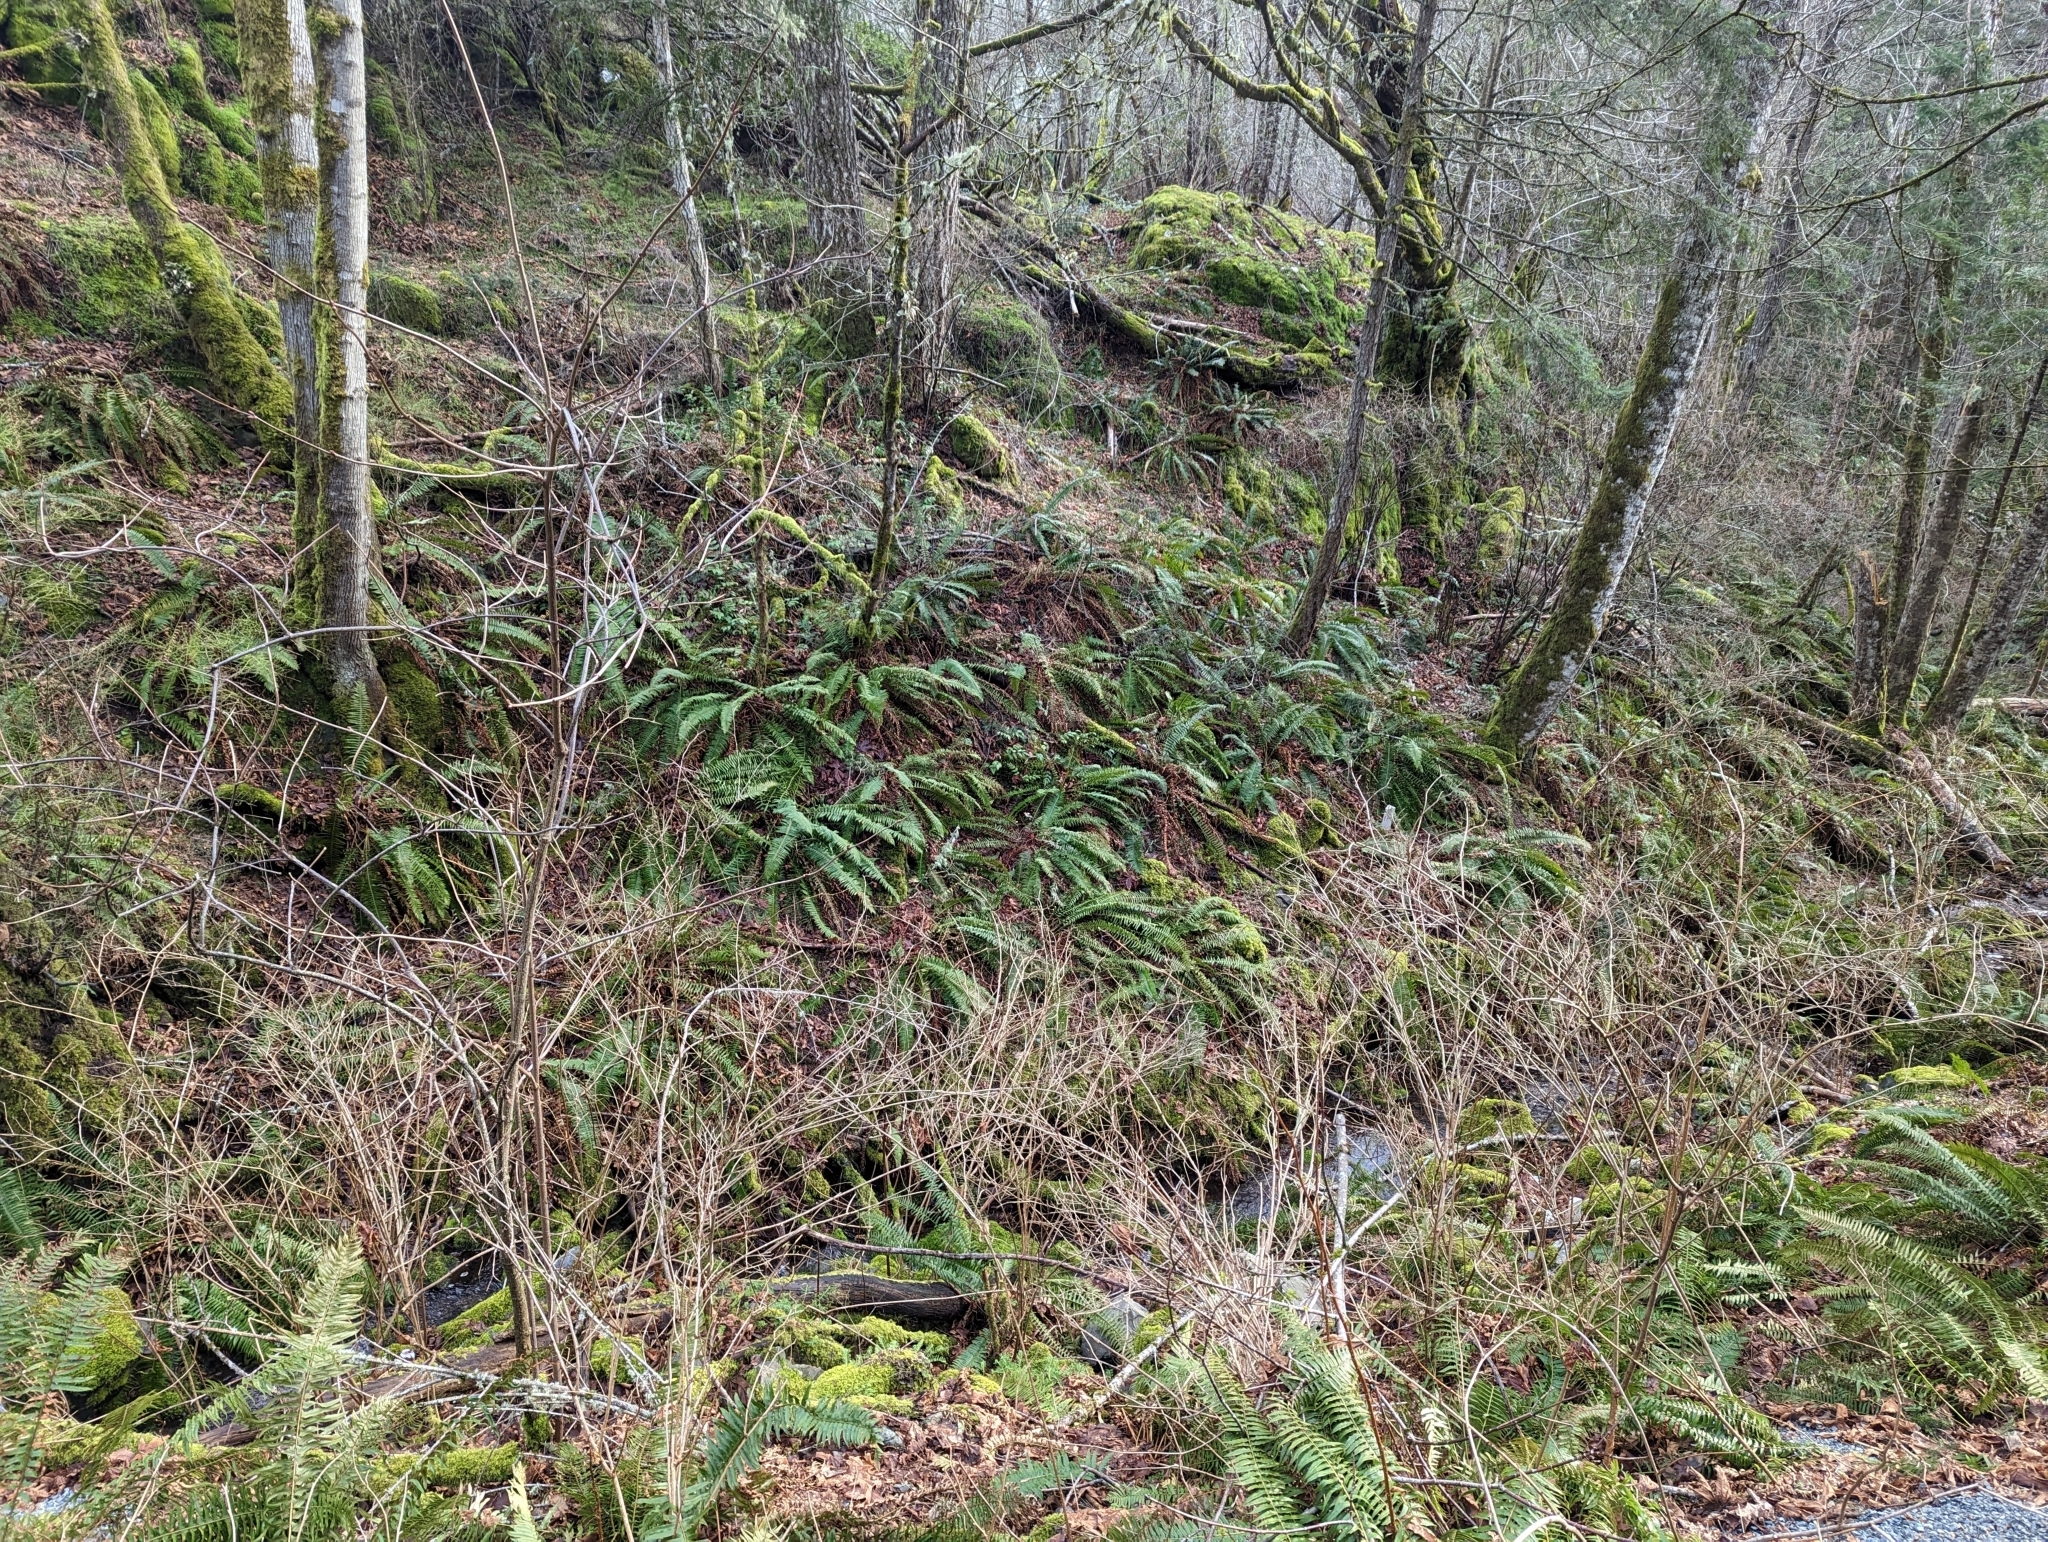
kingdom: Plantae
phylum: Tracheophyta
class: Polypodiopsida
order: Polypodiales
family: Dryopteridaceae
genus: Polystichum
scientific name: Polystichum munitum
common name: Western sword-fern
